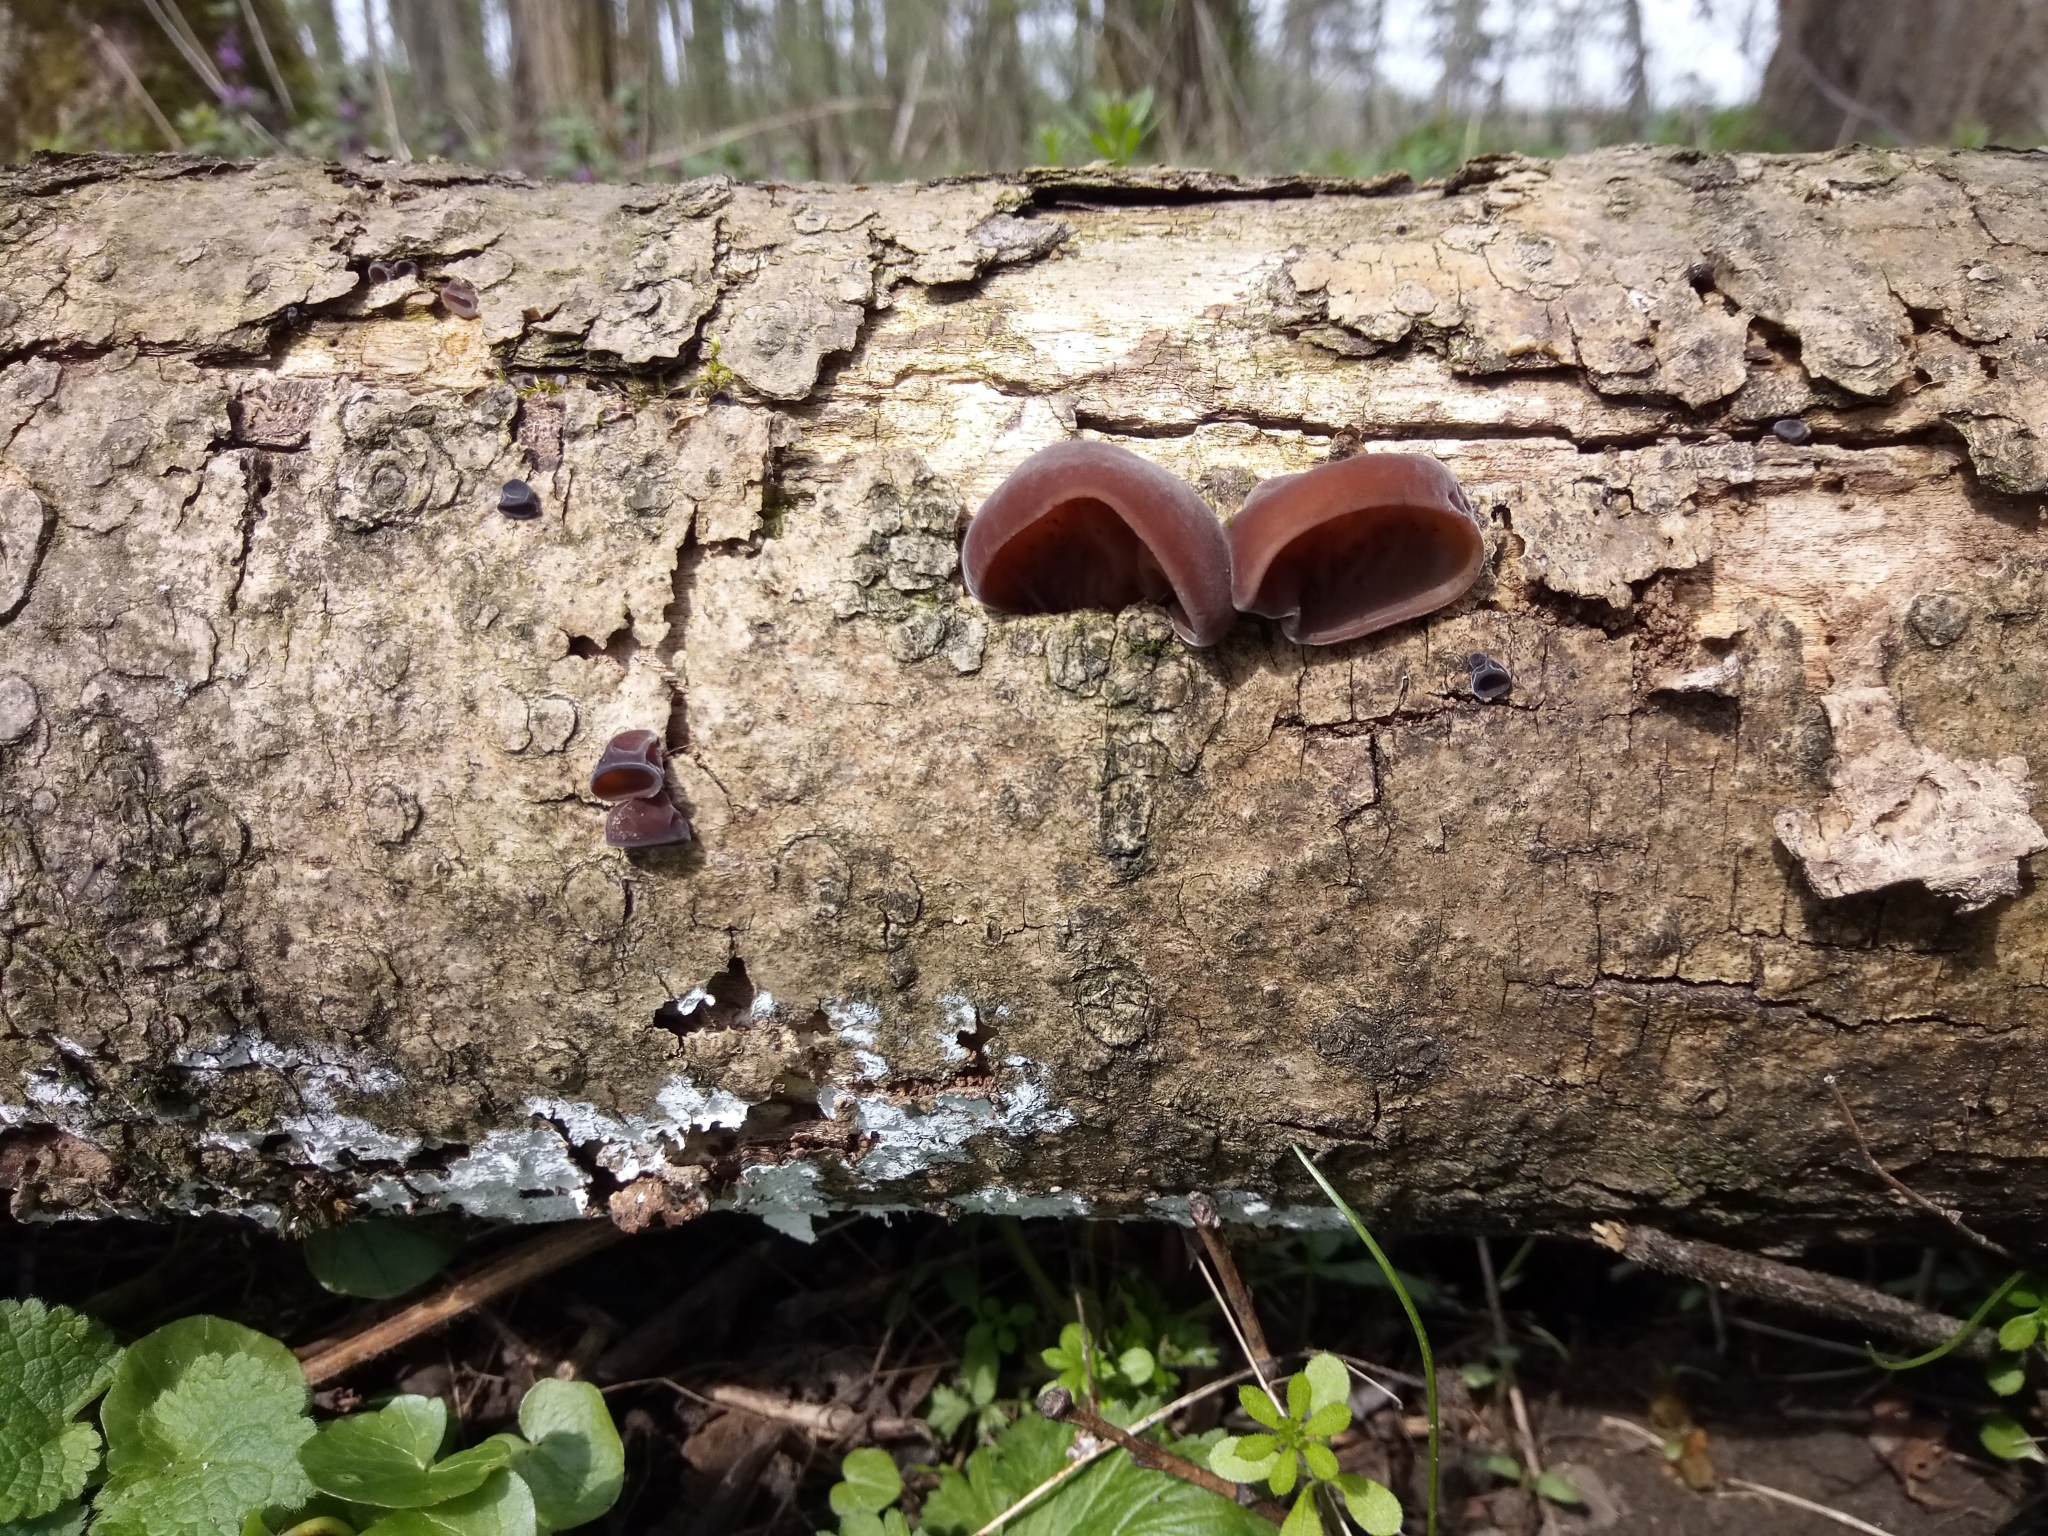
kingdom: Fungi
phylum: Basidiomycota
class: Agaricomycetes
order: Auriculariales
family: Auriculariaceae
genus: Auricularia
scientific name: Auricularia auricula-judae
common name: Jelly ear
